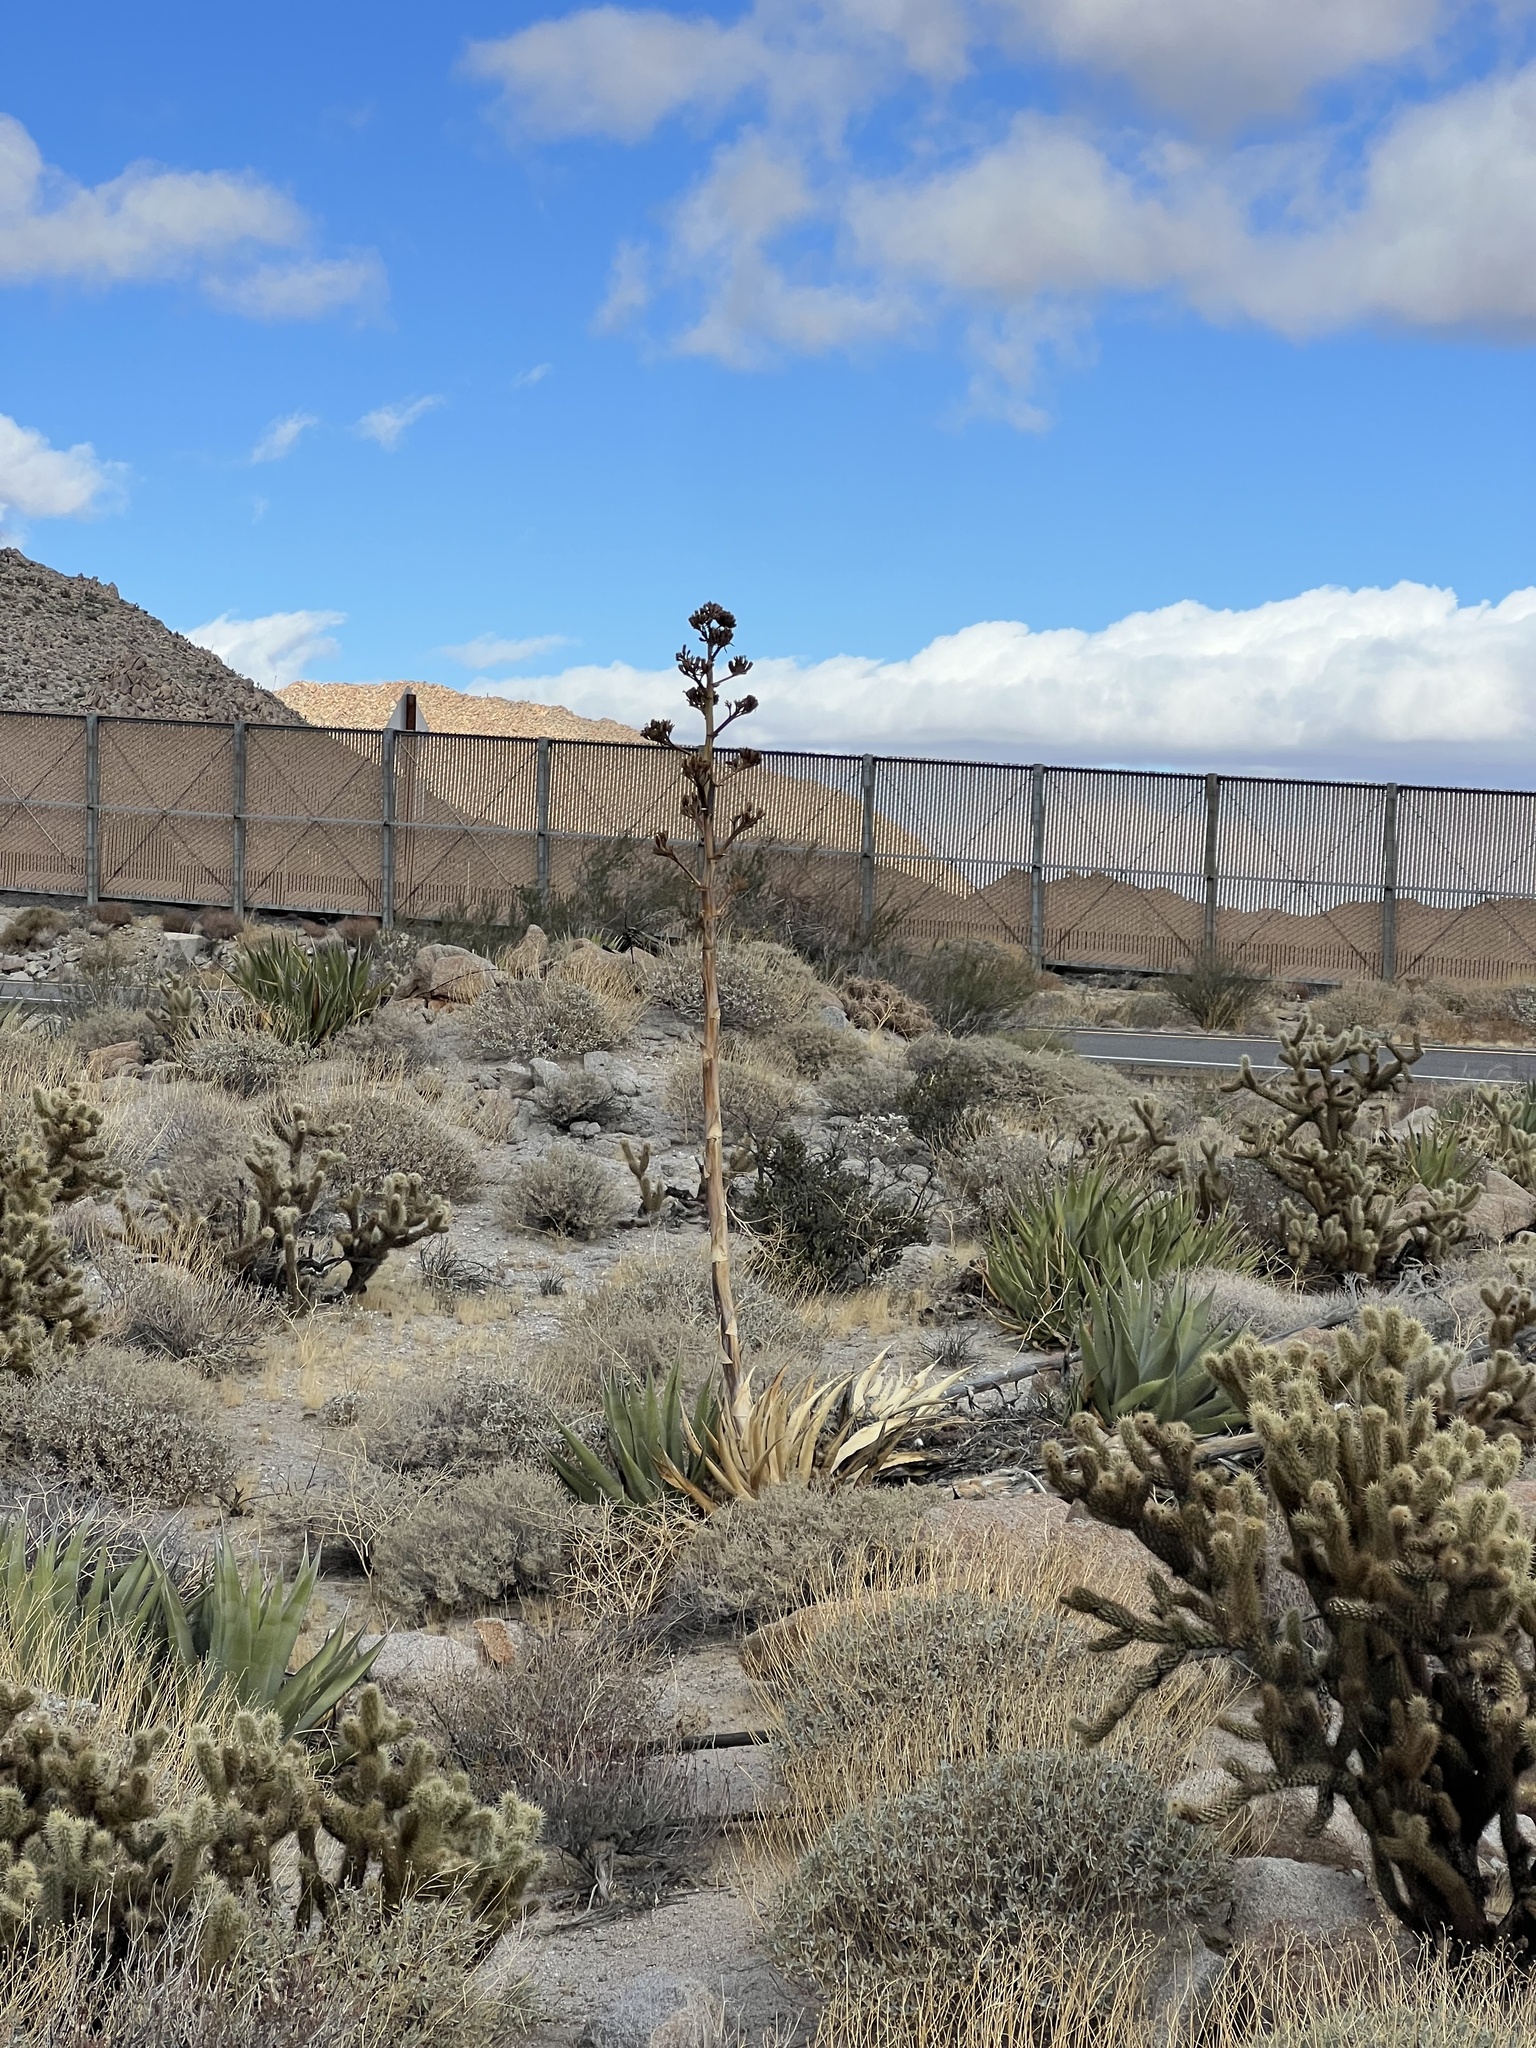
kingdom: Plantae
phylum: Tracheophyta
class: Liliopsida
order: Asparagales
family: Asparagaceae
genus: Agave
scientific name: Agave deserti
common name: Desert agave
